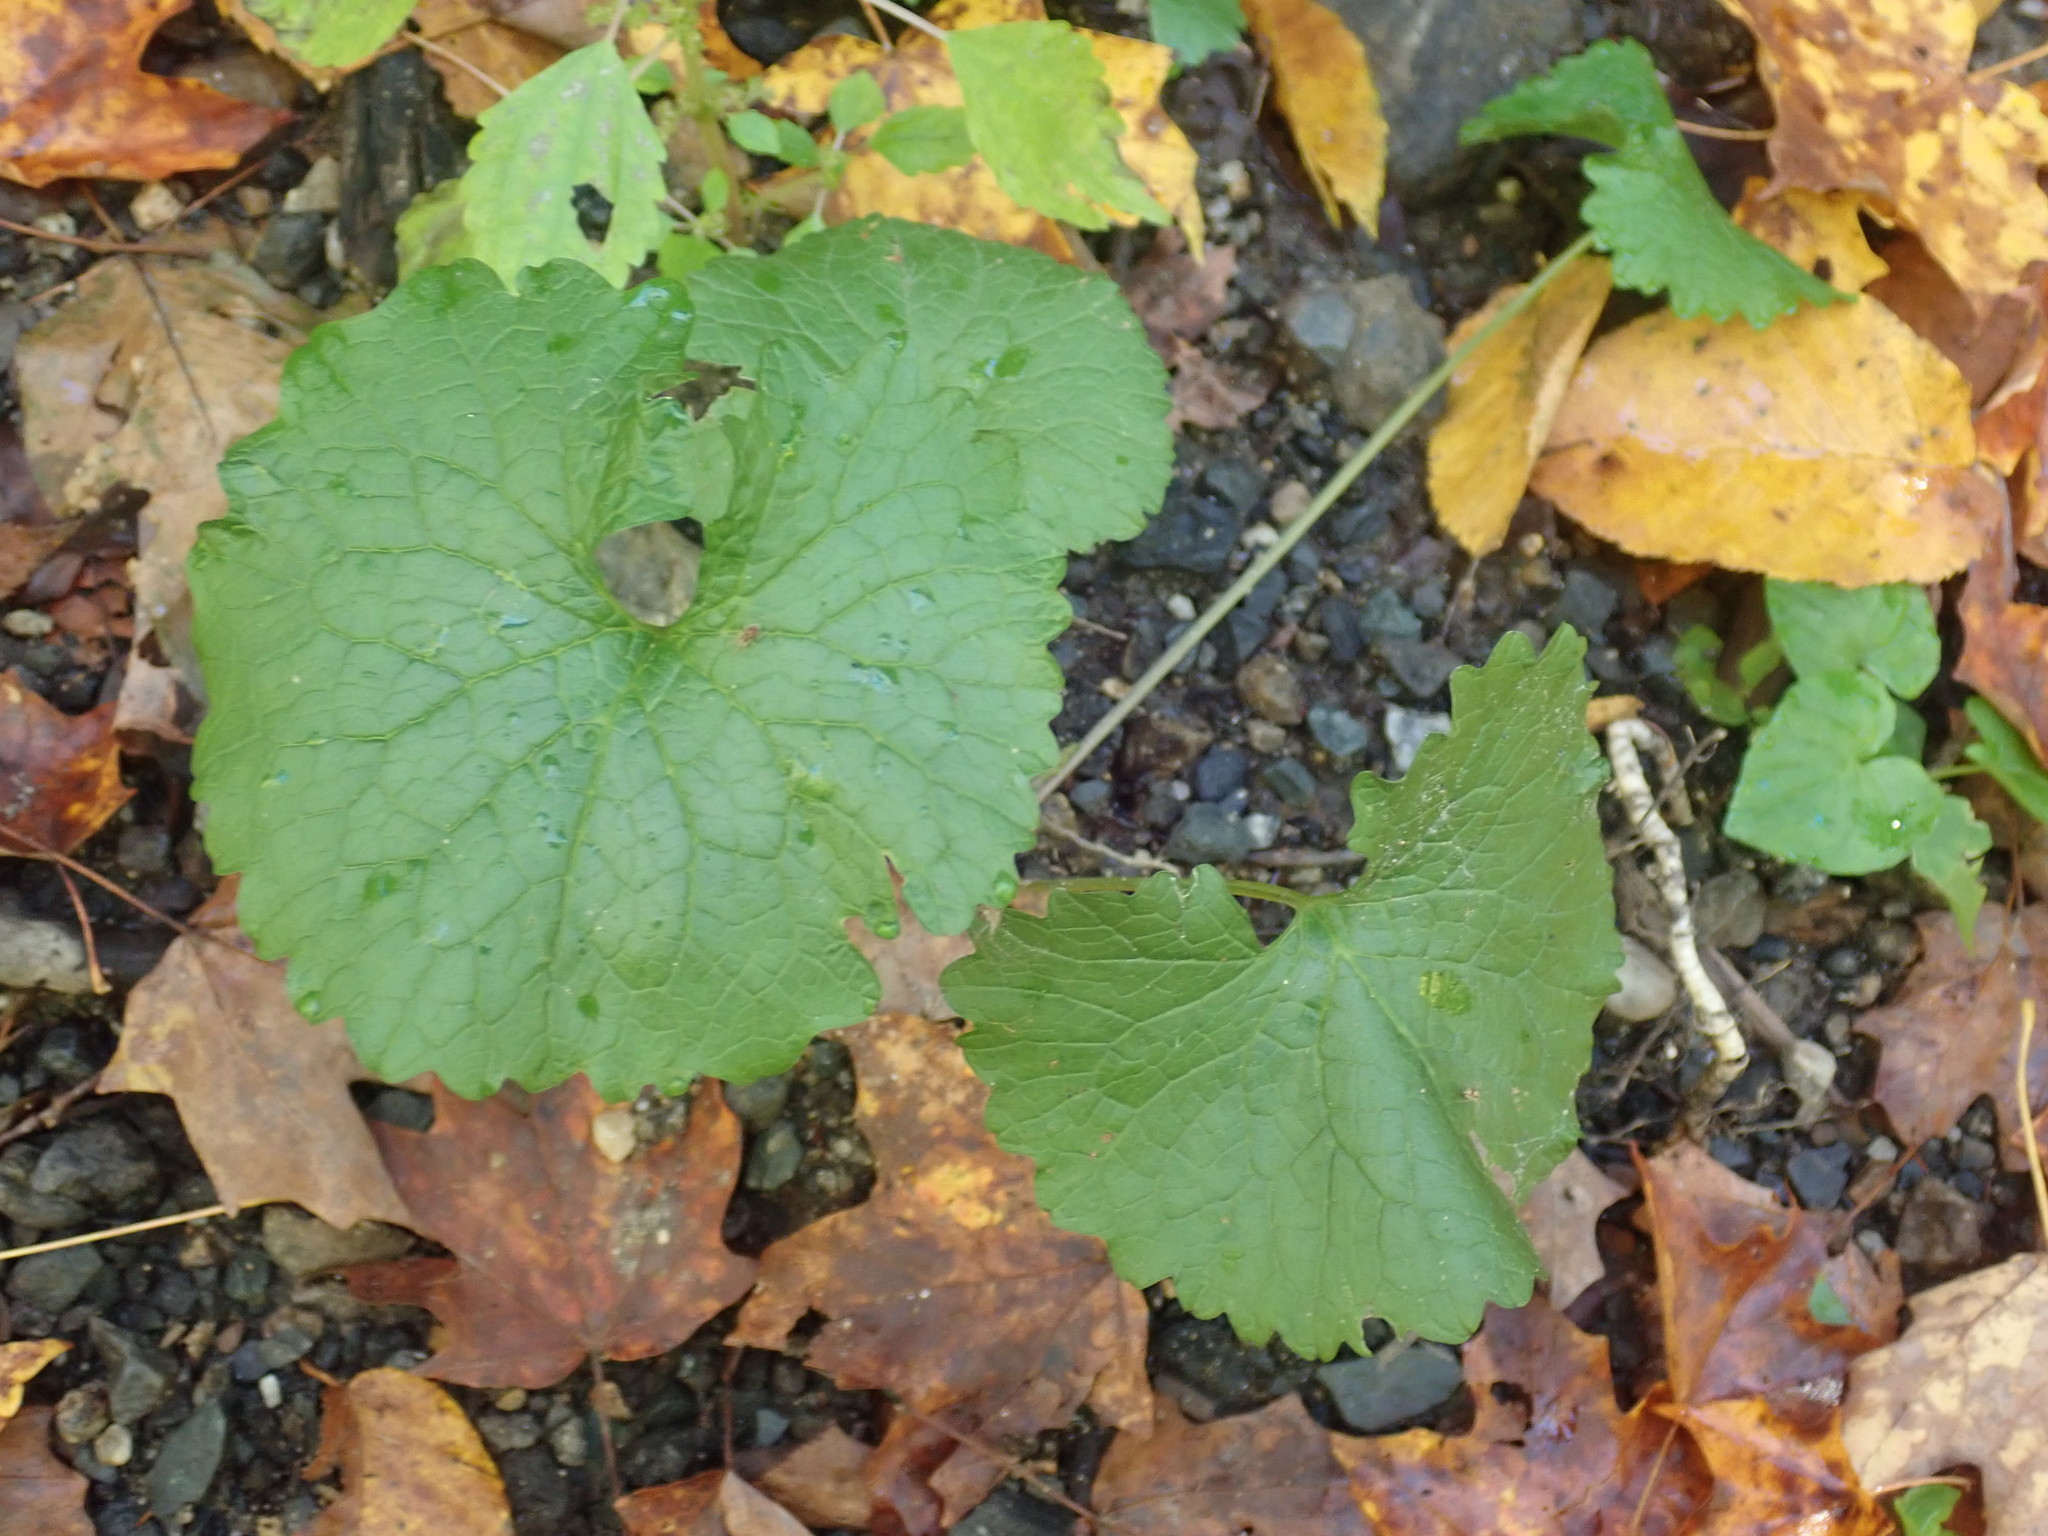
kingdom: Plantae
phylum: Tracheophyta
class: Magnoliopsida
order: Brassicales
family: Brassicaceae
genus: Alliaria
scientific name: Alliaria petiolata
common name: Garlic mustard
